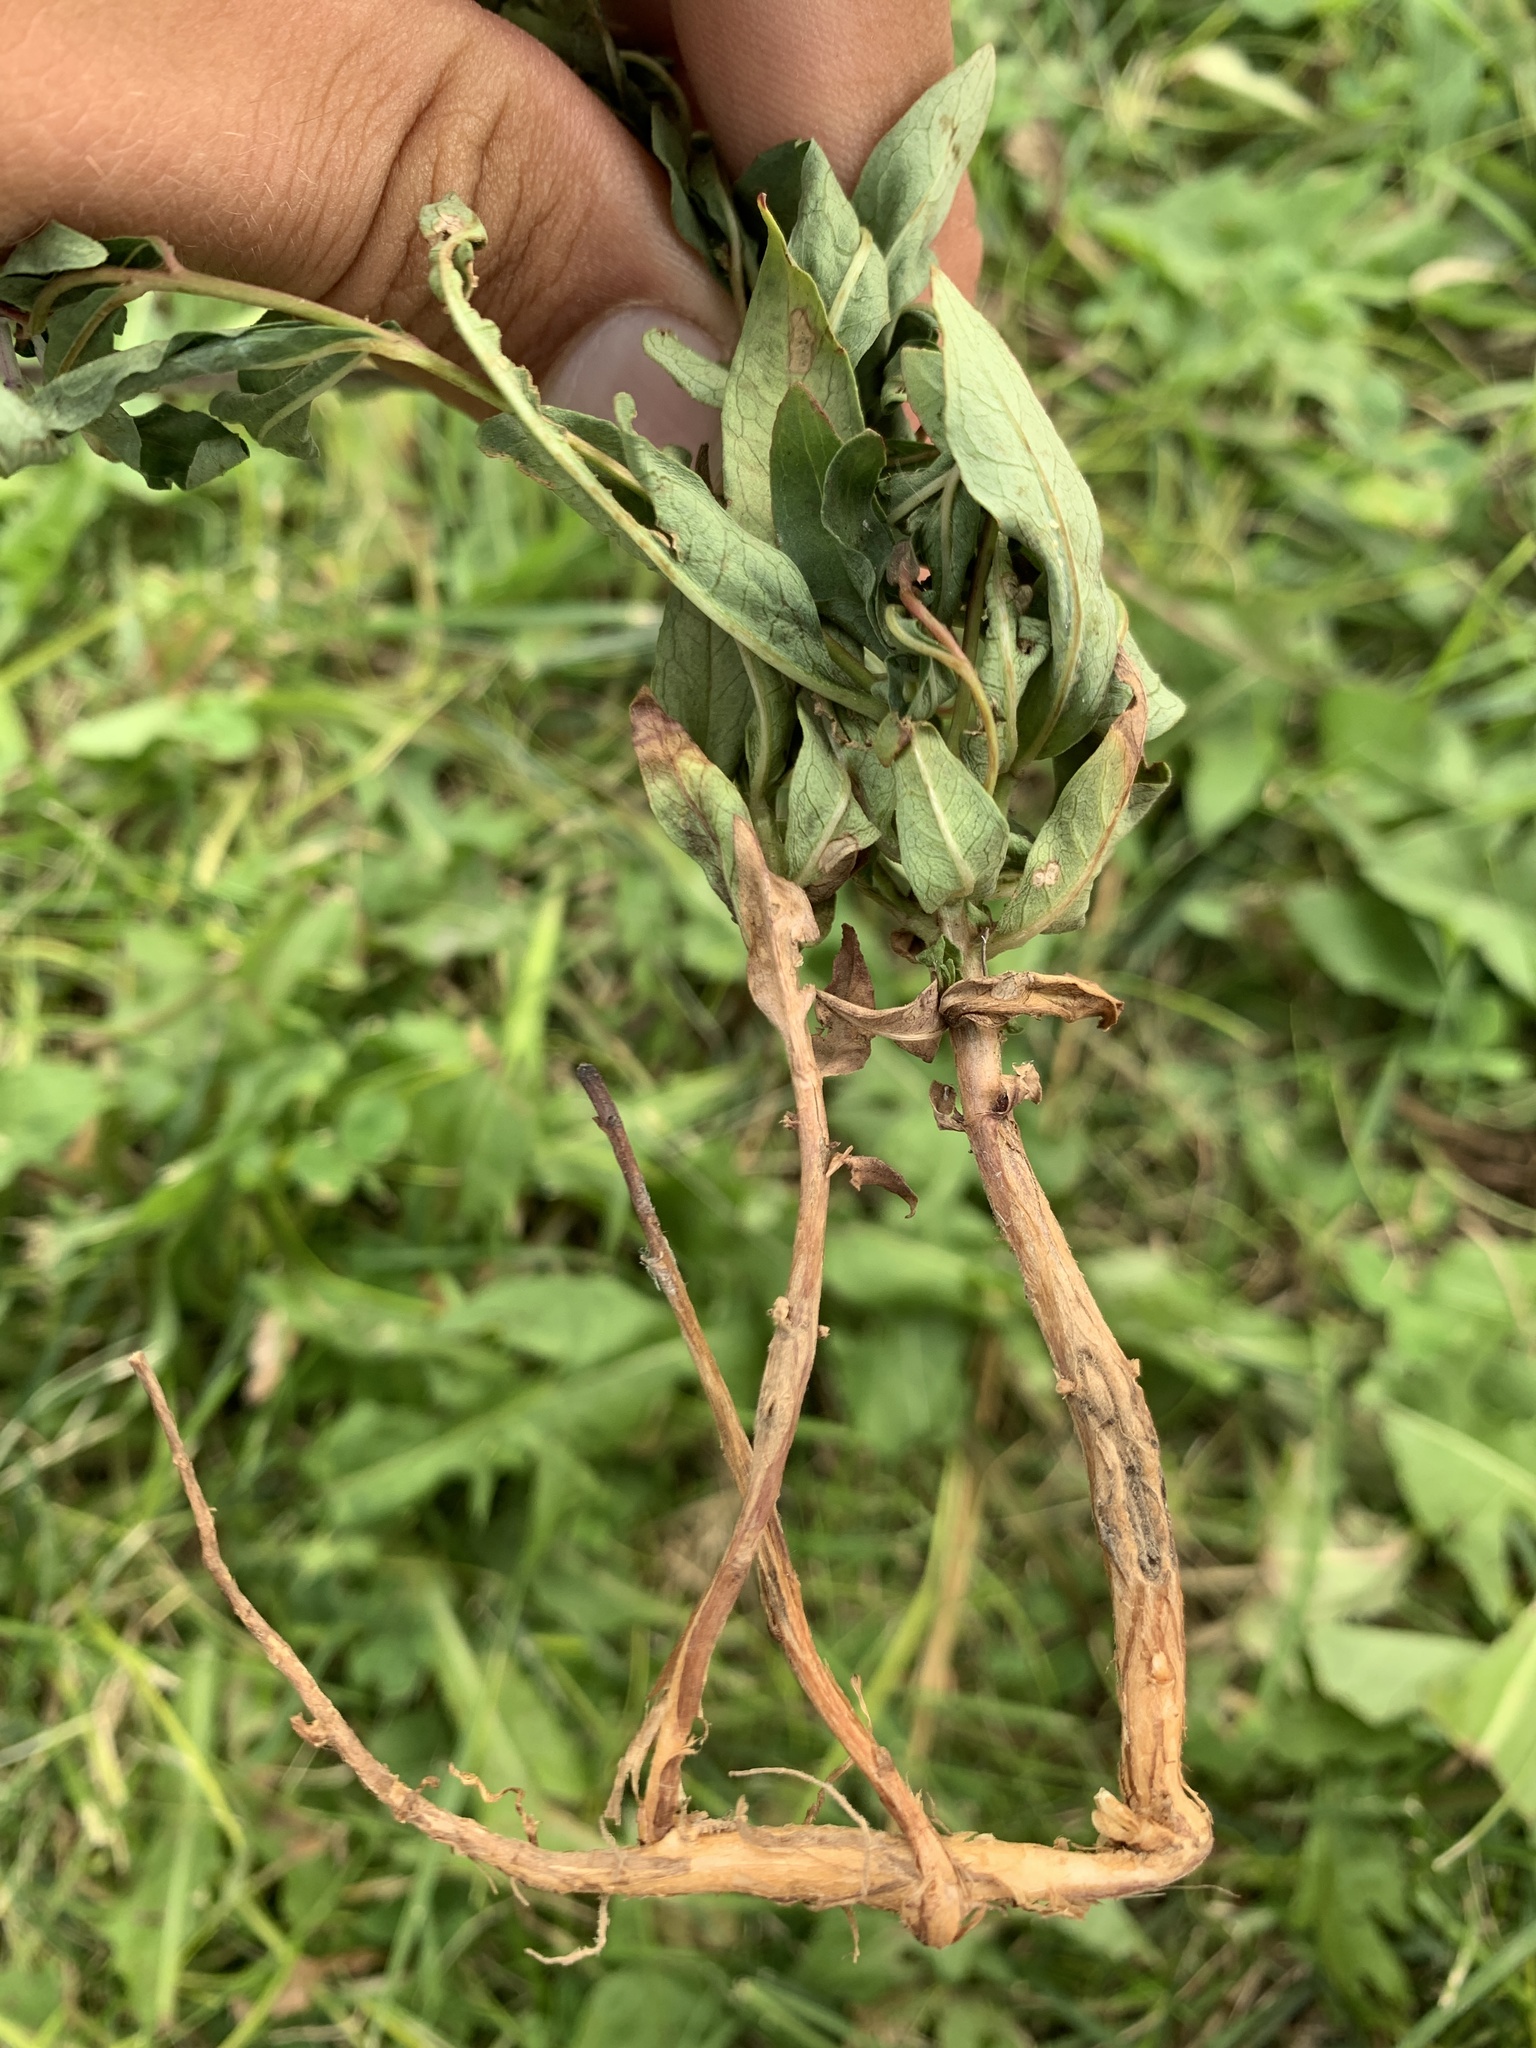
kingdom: Plantae
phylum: Tracheophyta
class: Magnoliopsida
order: Myrtales
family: Onagraceae
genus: Chamaenerion
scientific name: Chamaenerion angustifolium
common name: Fireweed
